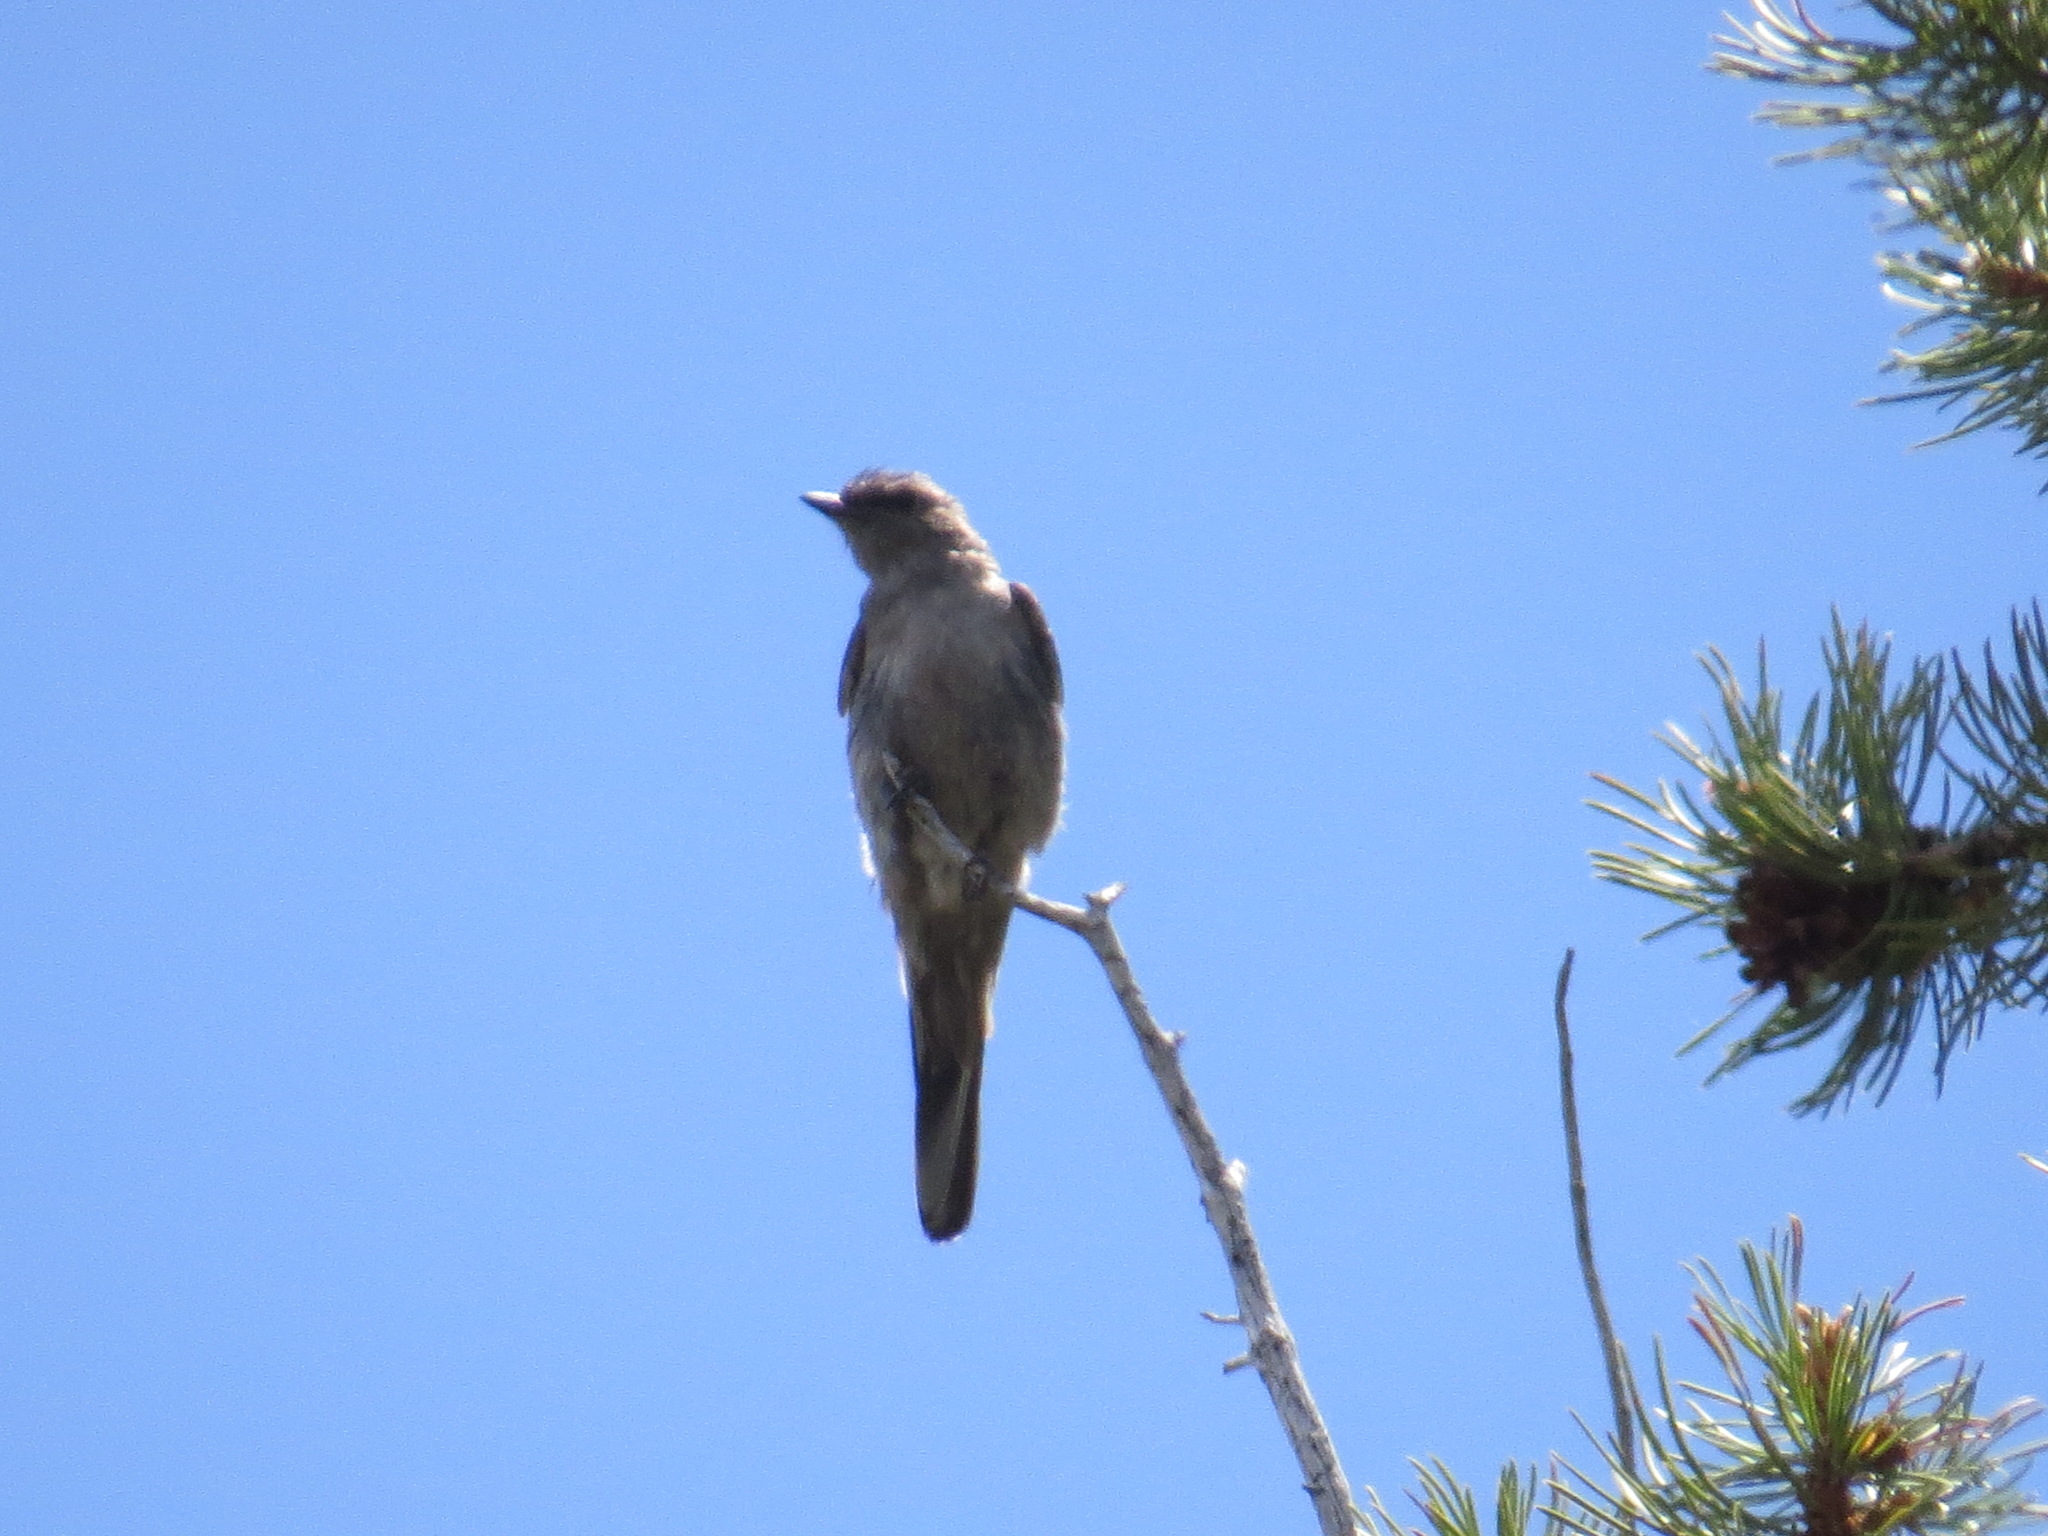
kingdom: Animalia
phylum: Chordata
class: Aves
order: Passeriformes
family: Turdidae
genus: Myadestes
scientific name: Myadestes townsendi
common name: Townsend's solitaire
